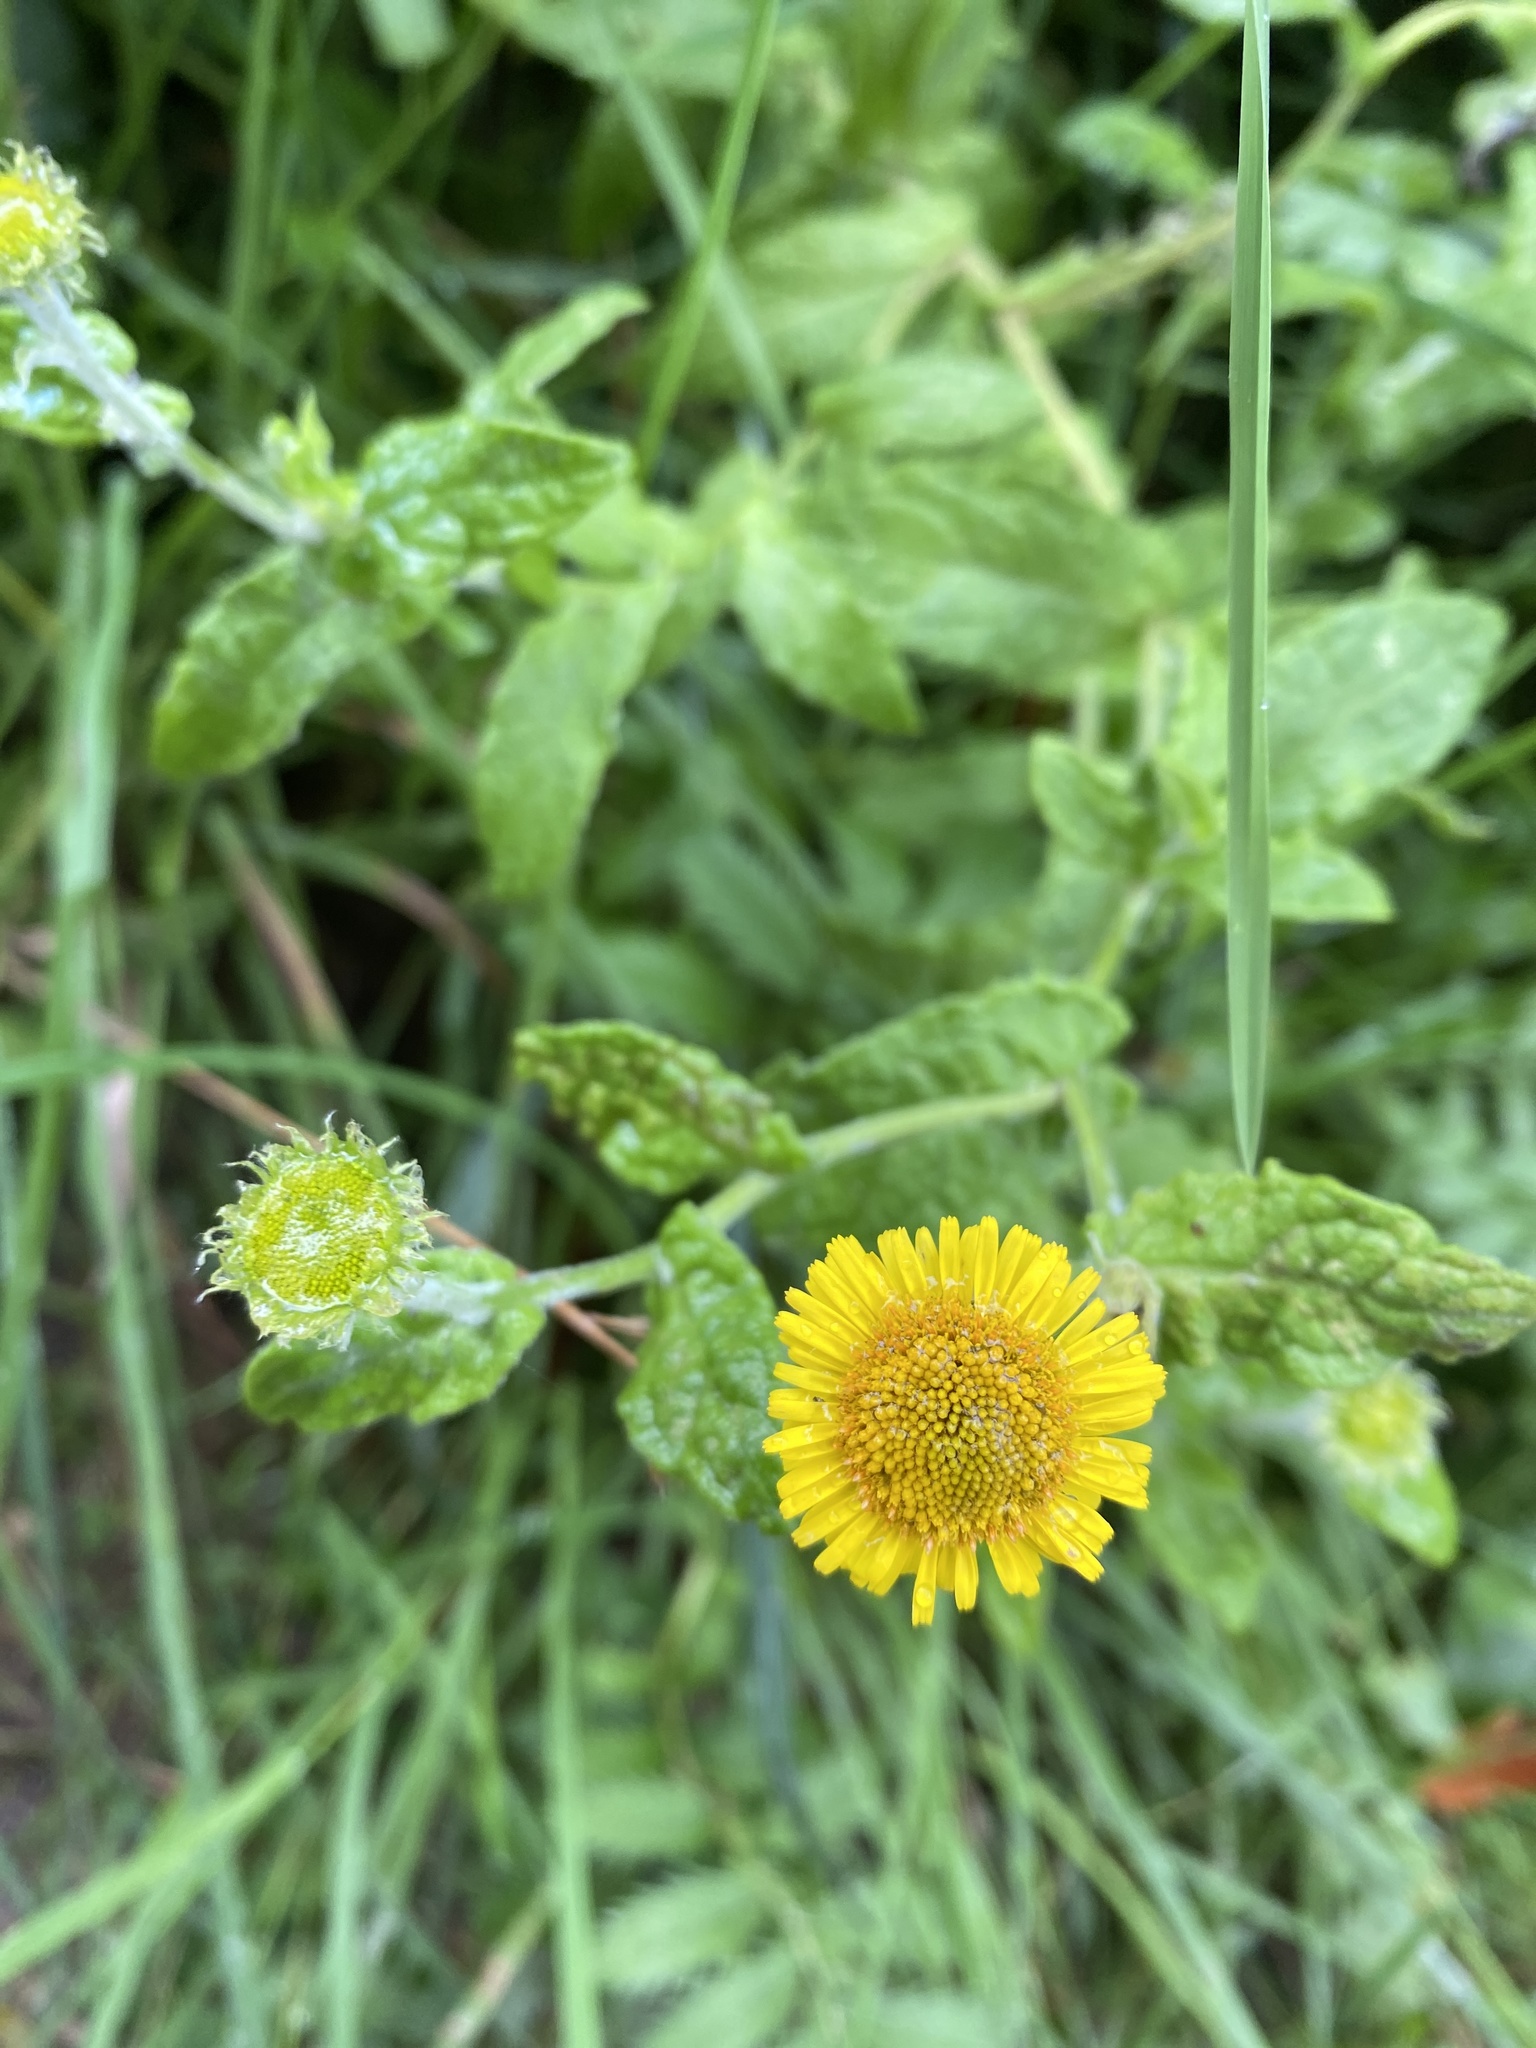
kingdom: Plantae
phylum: Tracheophyta
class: Magnoliopsida
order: Asterales
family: Asteraceae
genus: Pulicaria
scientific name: Pulicaria dysenterica
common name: Common fleabane
